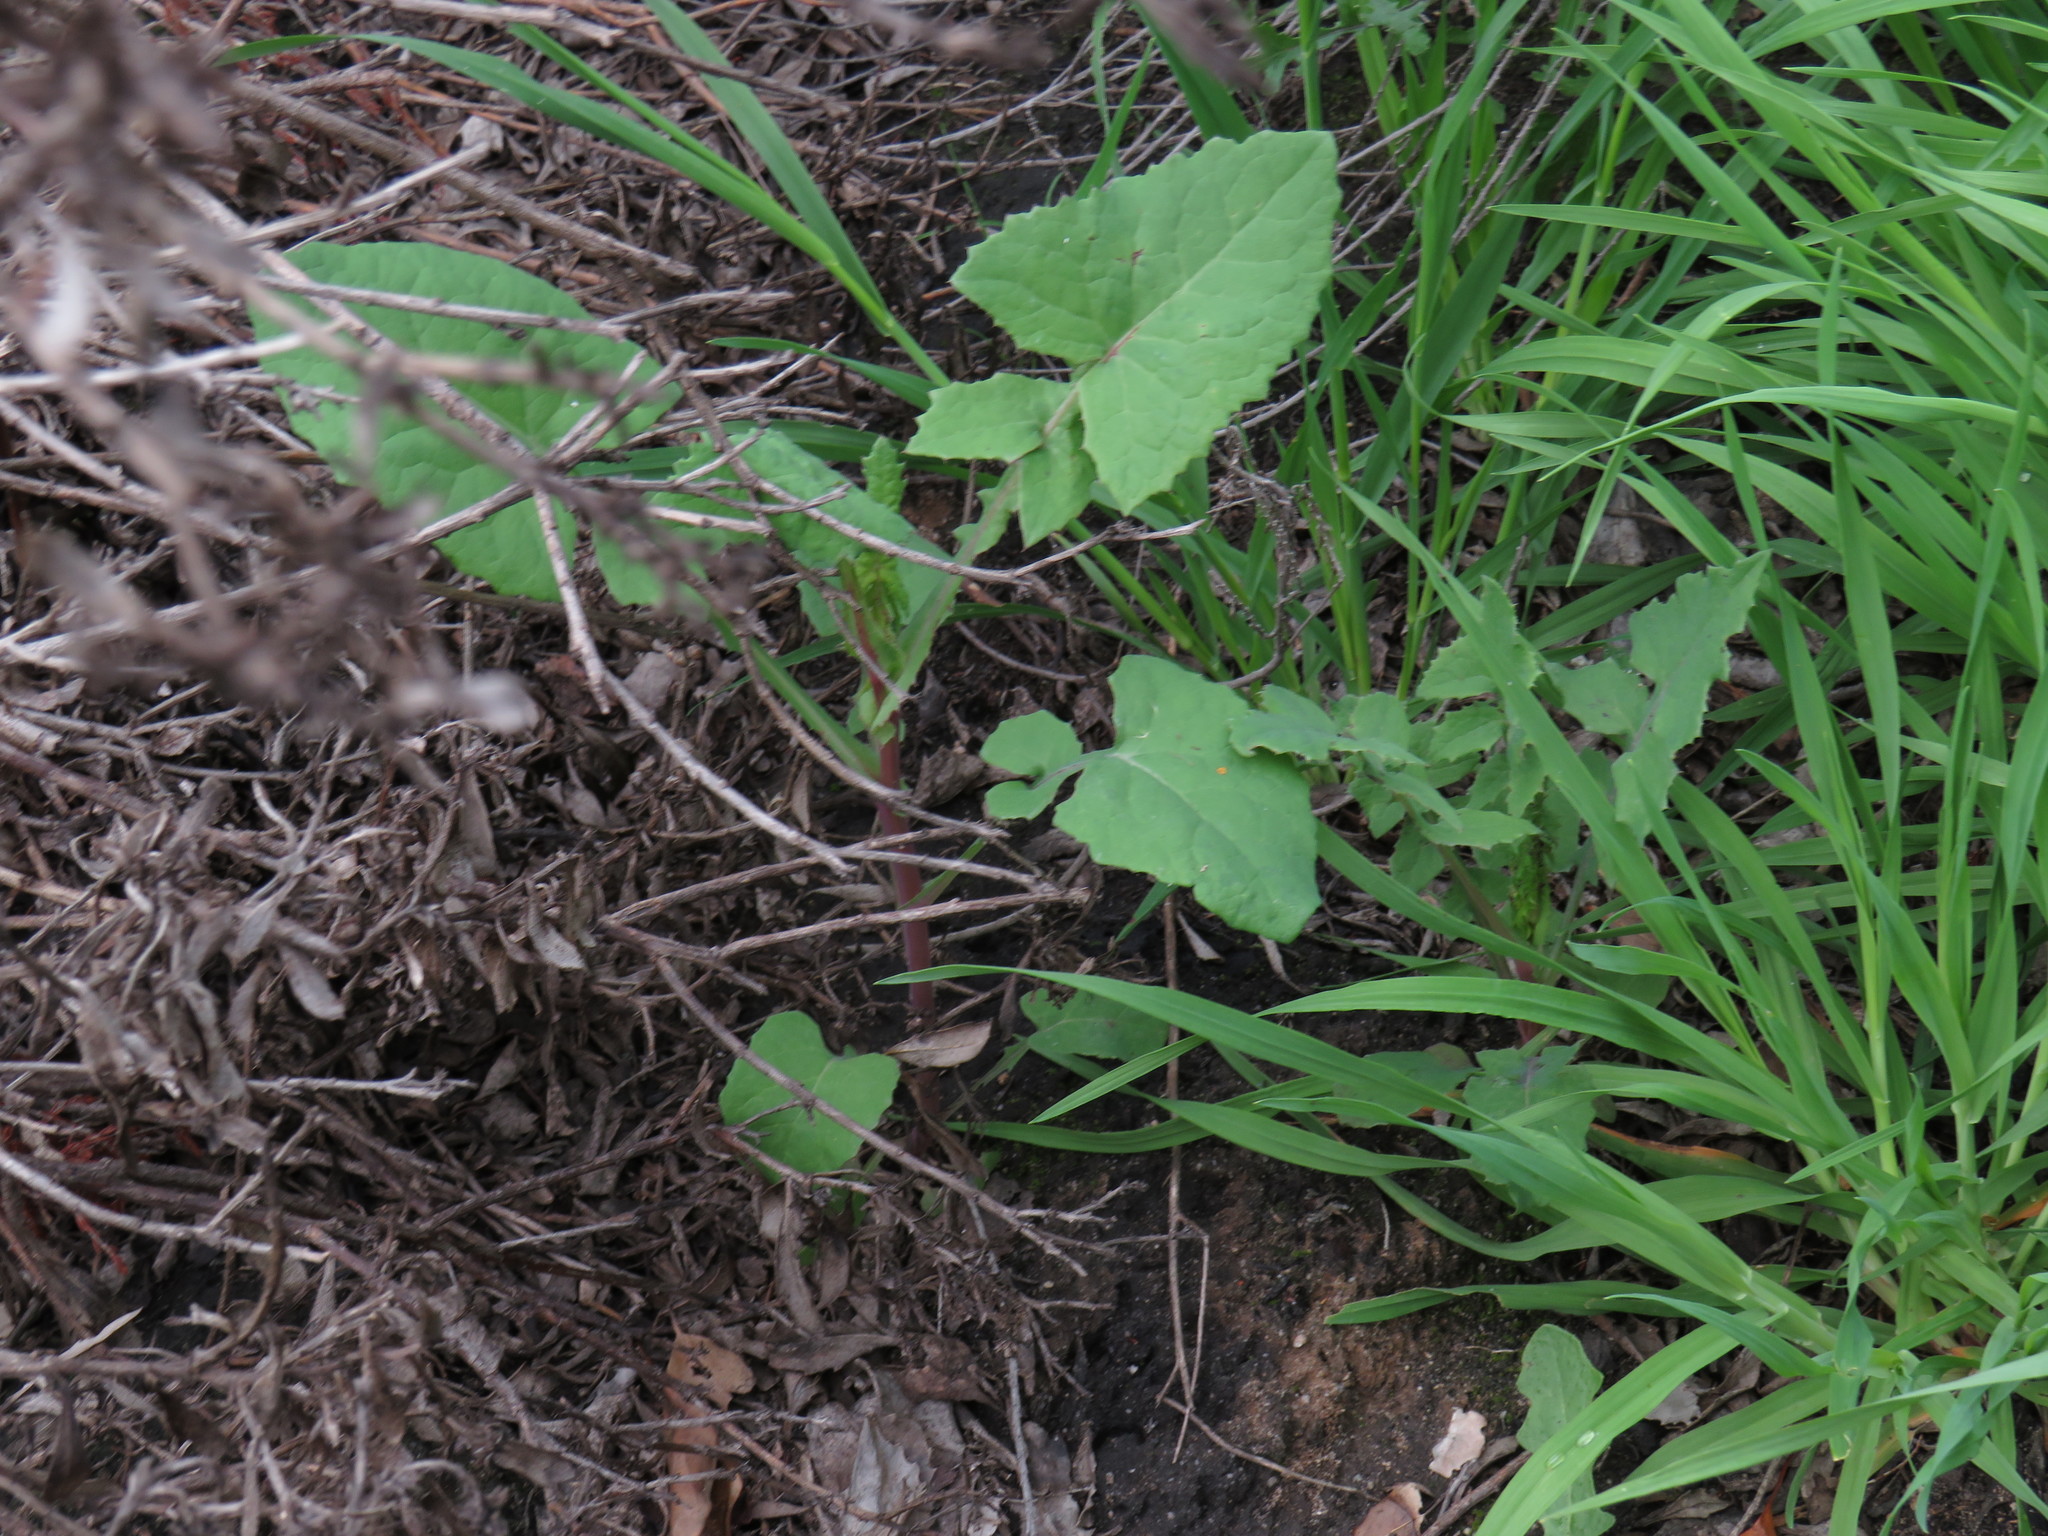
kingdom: Plantae
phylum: Tracheophyta
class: Magnoliopsida
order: Asterales
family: Asteraceae
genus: Sonchus
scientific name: Sonchus oleraceus
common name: Common sowthistle
